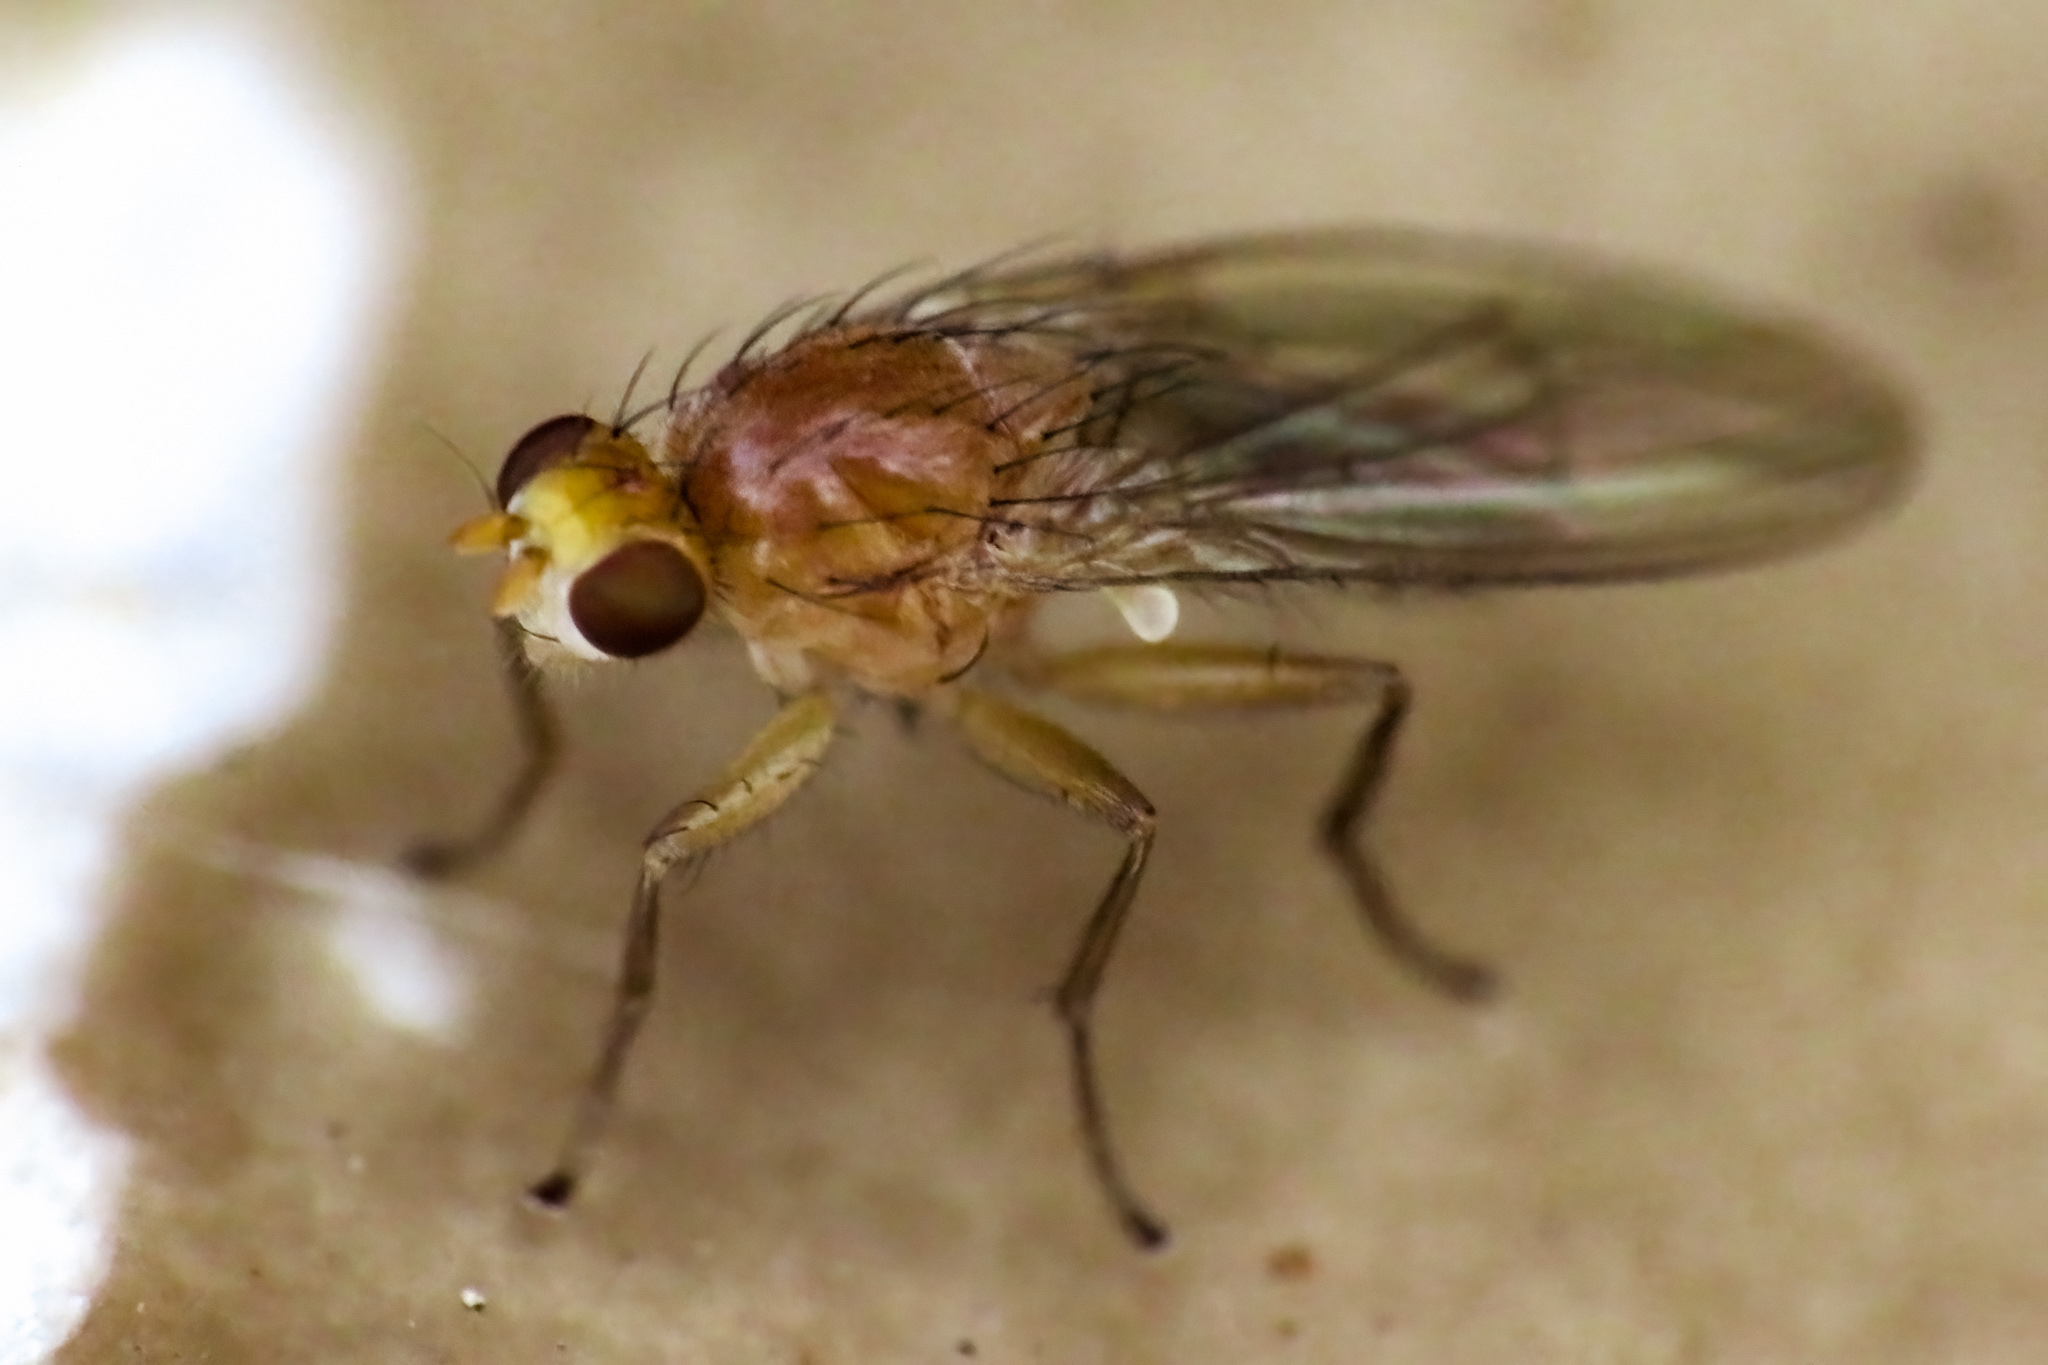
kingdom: Animalia
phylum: Arthropoda
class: Insecta
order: Diptera
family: Heleomyzidae
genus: Allophyla
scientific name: Allophyla laevis
